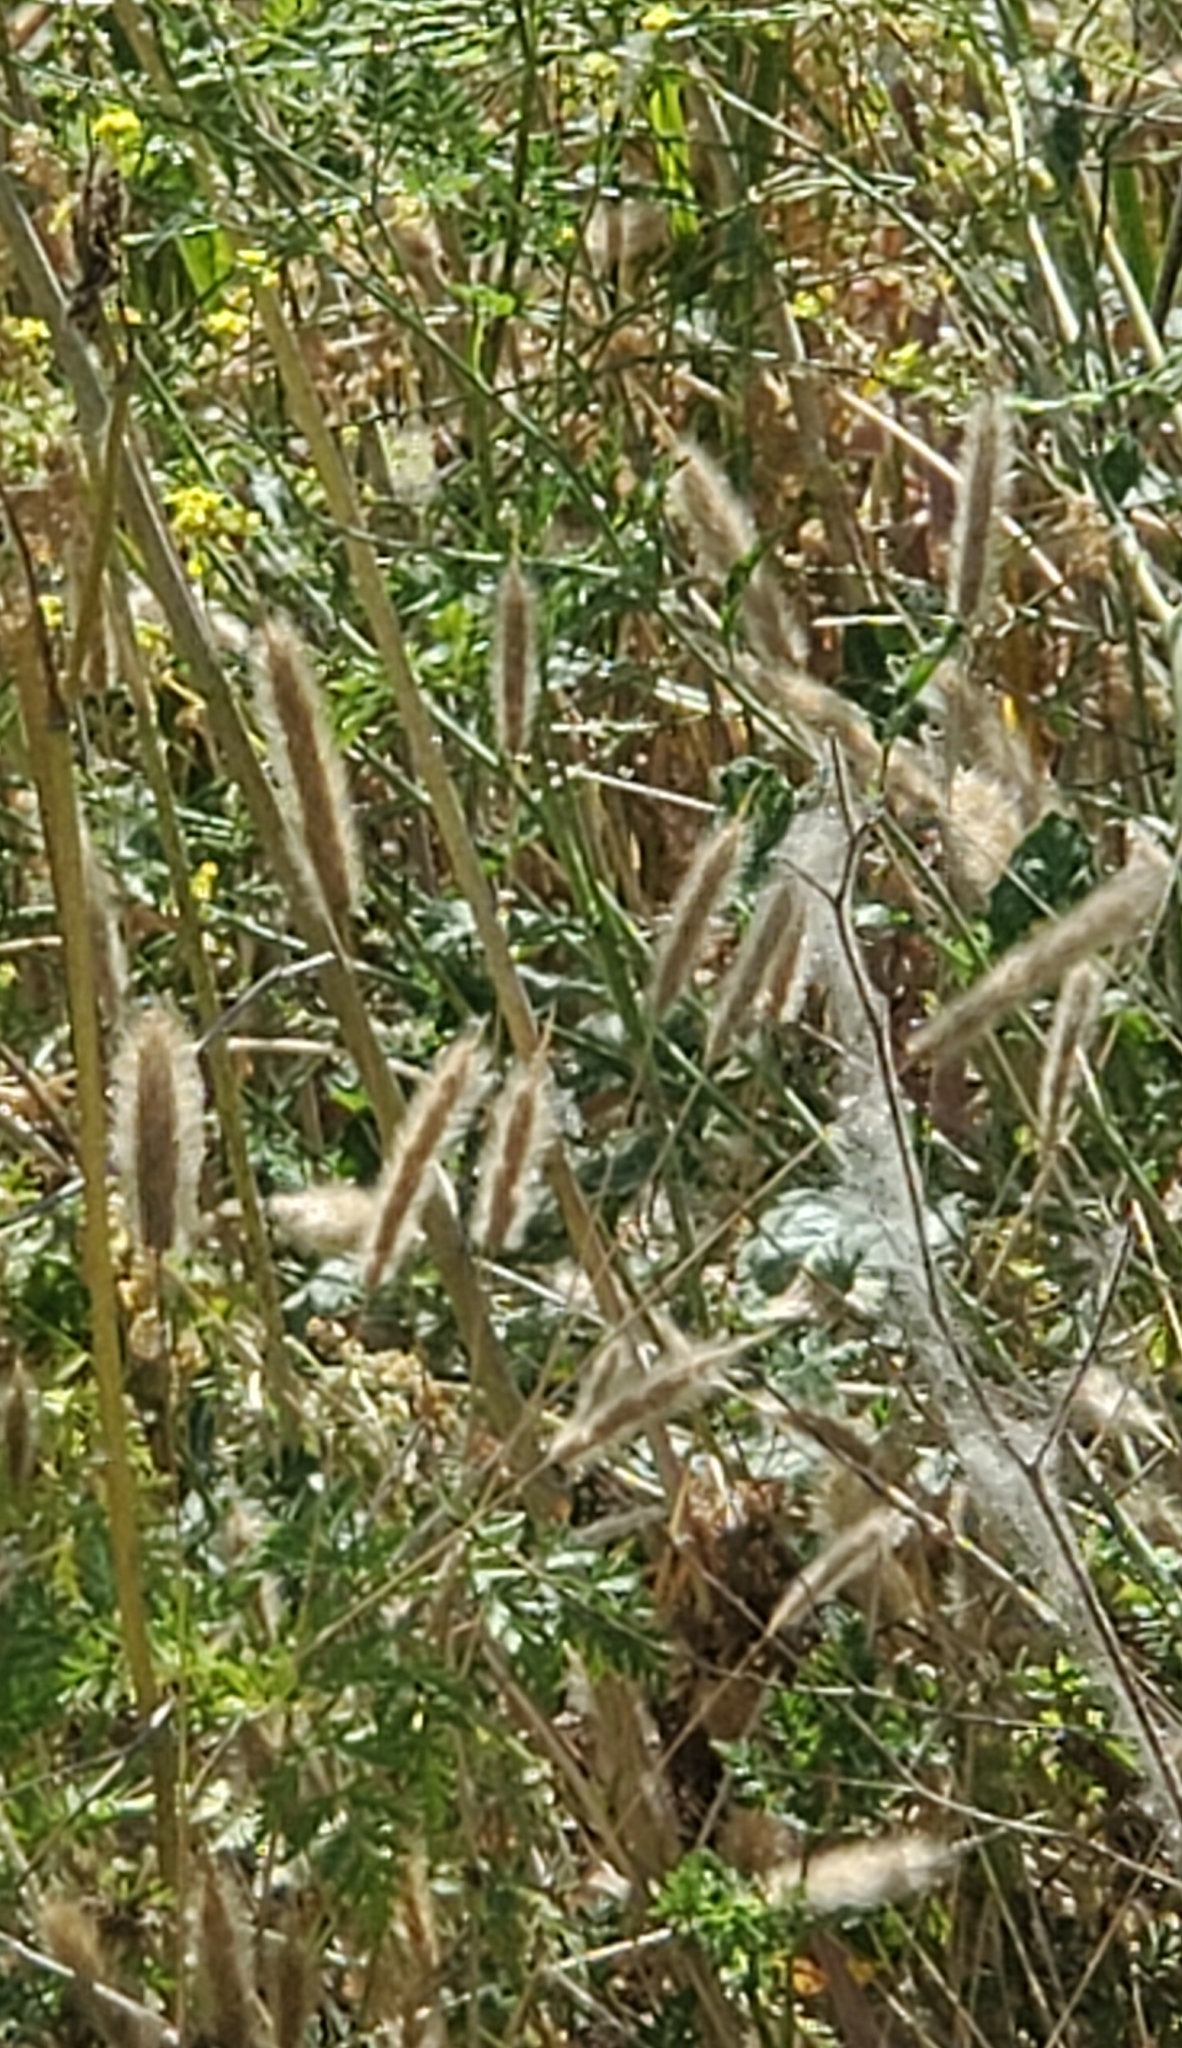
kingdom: Plantae
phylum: Tracheophyta
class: Liliopsida
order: Poales
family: Poaceae
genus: Polypogon
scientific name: Polypogon monspeliensis
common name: Annual rabbitsfoot grass
